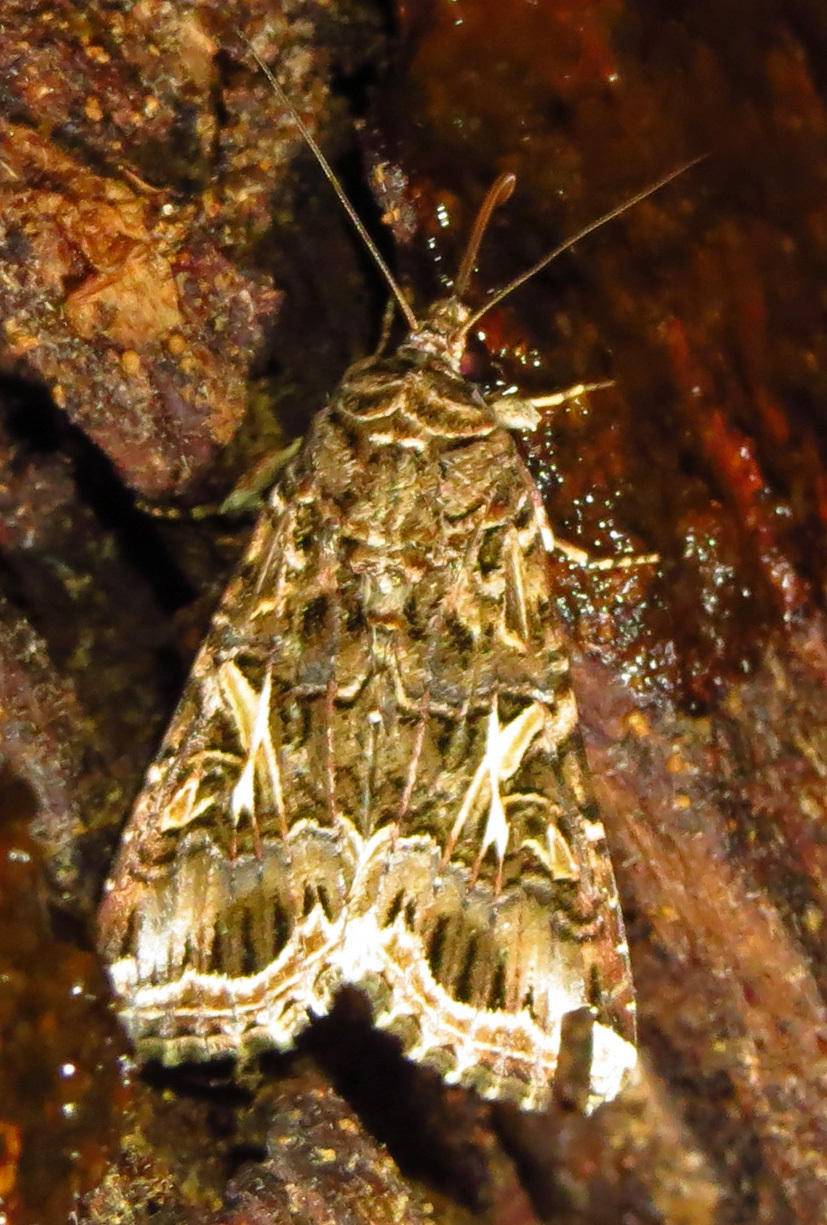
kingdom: Animalia
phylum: Arthropoda
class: Insecta
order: Lepidoptera
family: Noctuidae
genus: Spodoptera
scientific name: Spodoptera ornithogalli
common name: Yellow-striped armyworm
